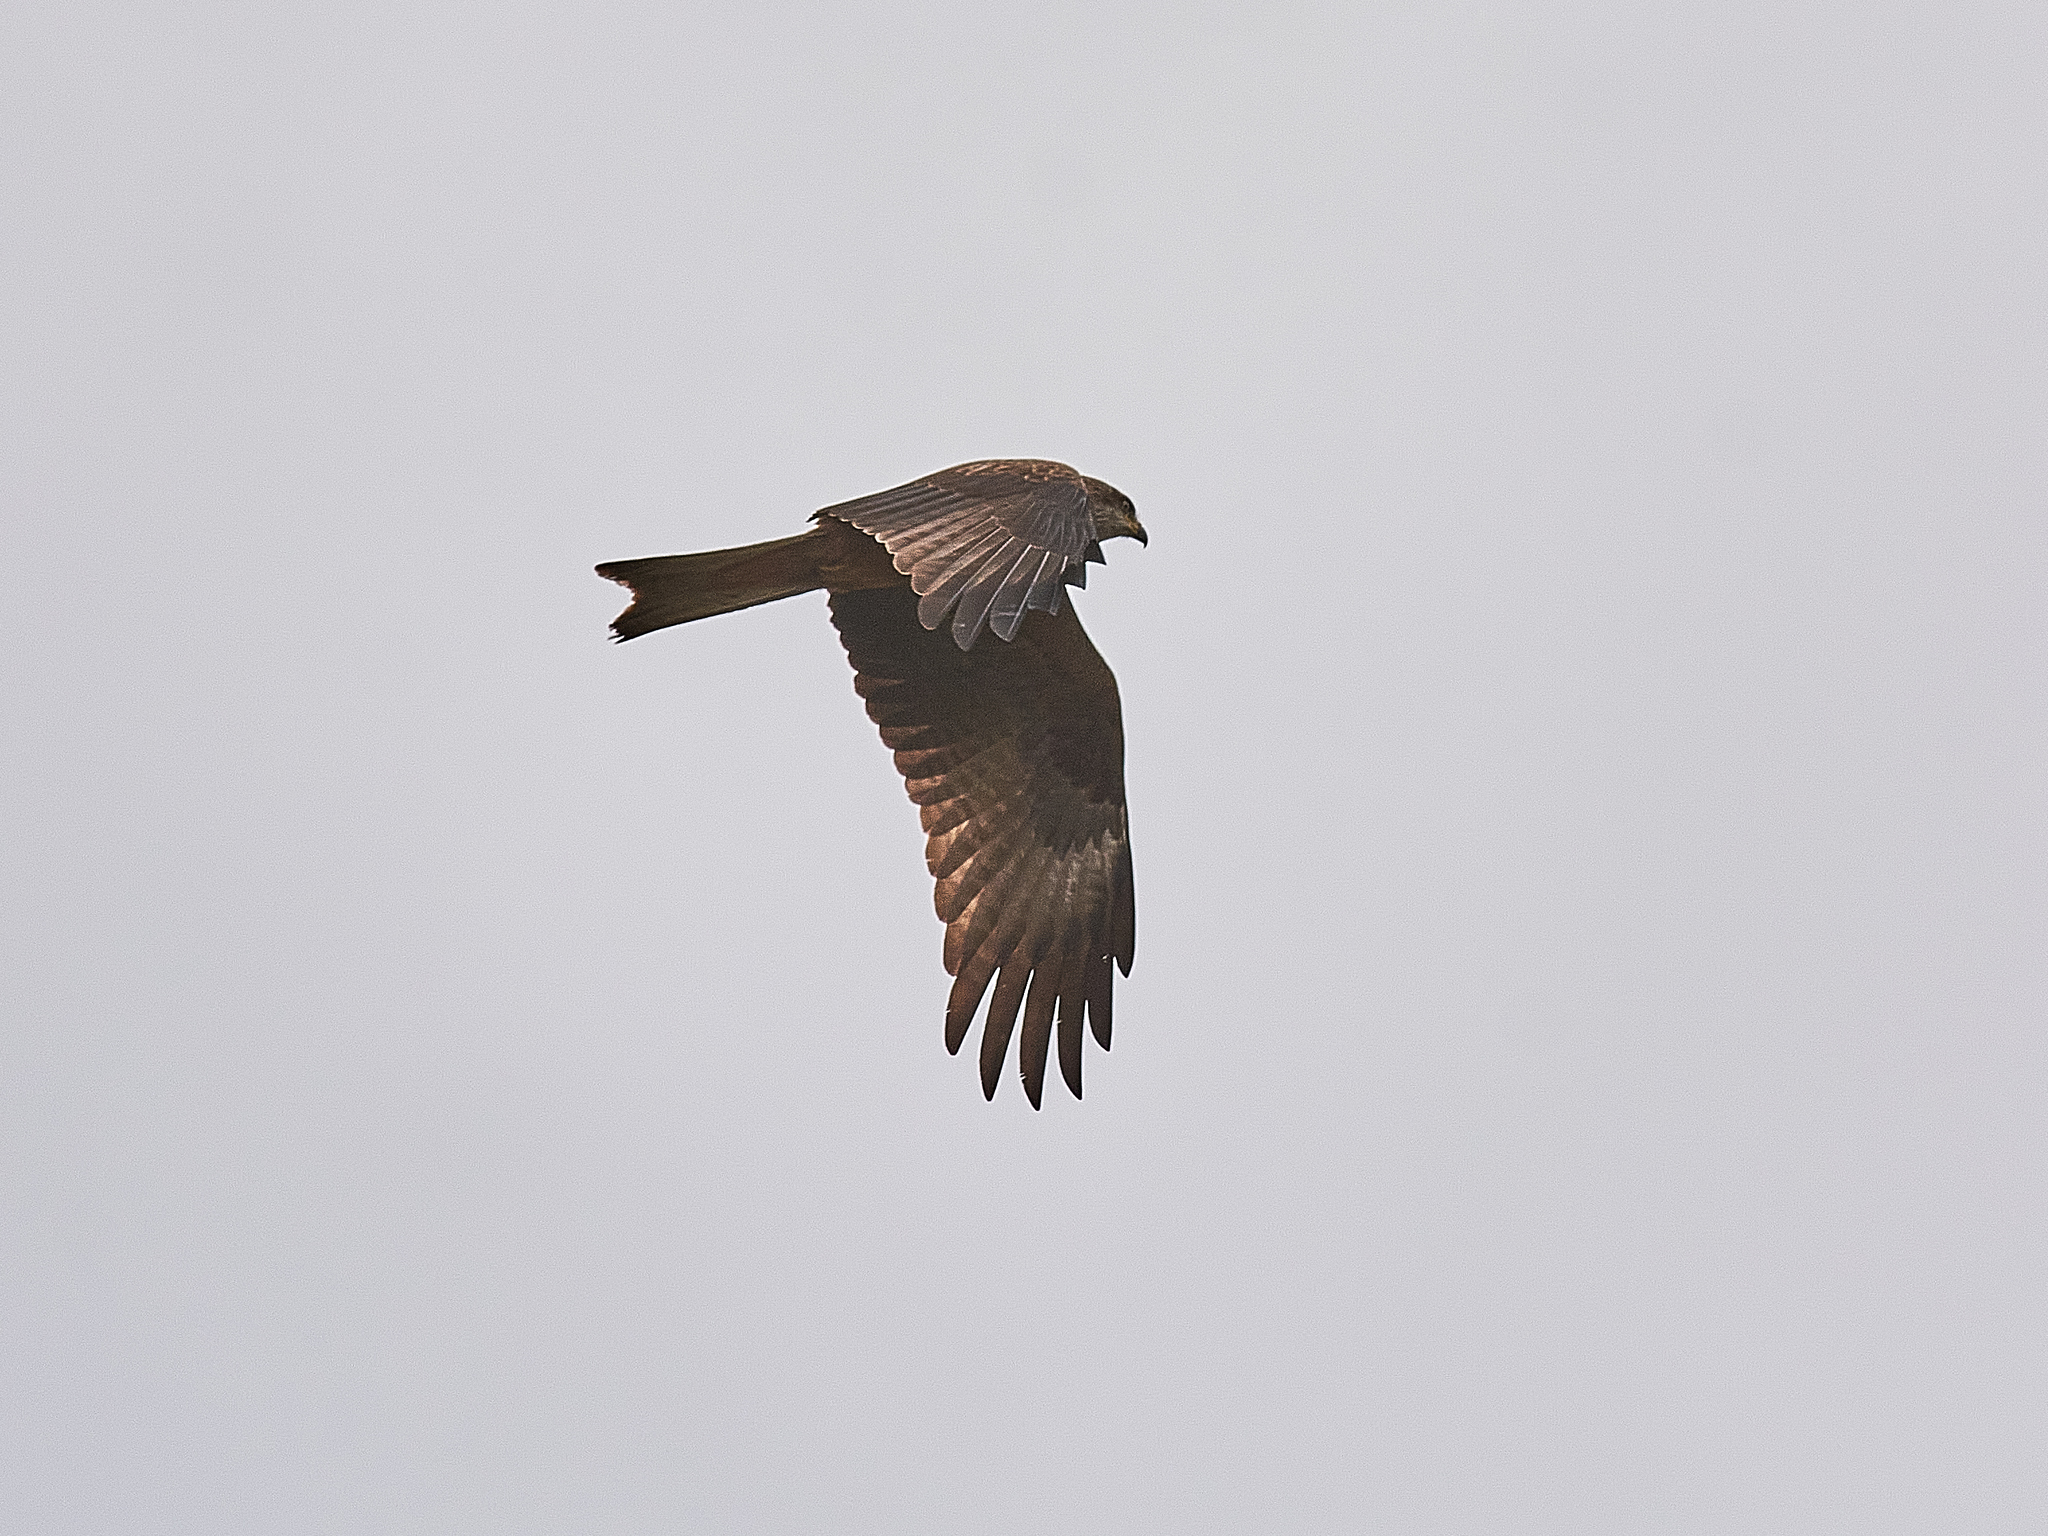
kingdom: Animalia
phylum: Chordata
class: Aves
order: Accipitriformes
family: Accipitridae
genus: Milvus
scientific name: Milvus migrans
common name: Black kite
